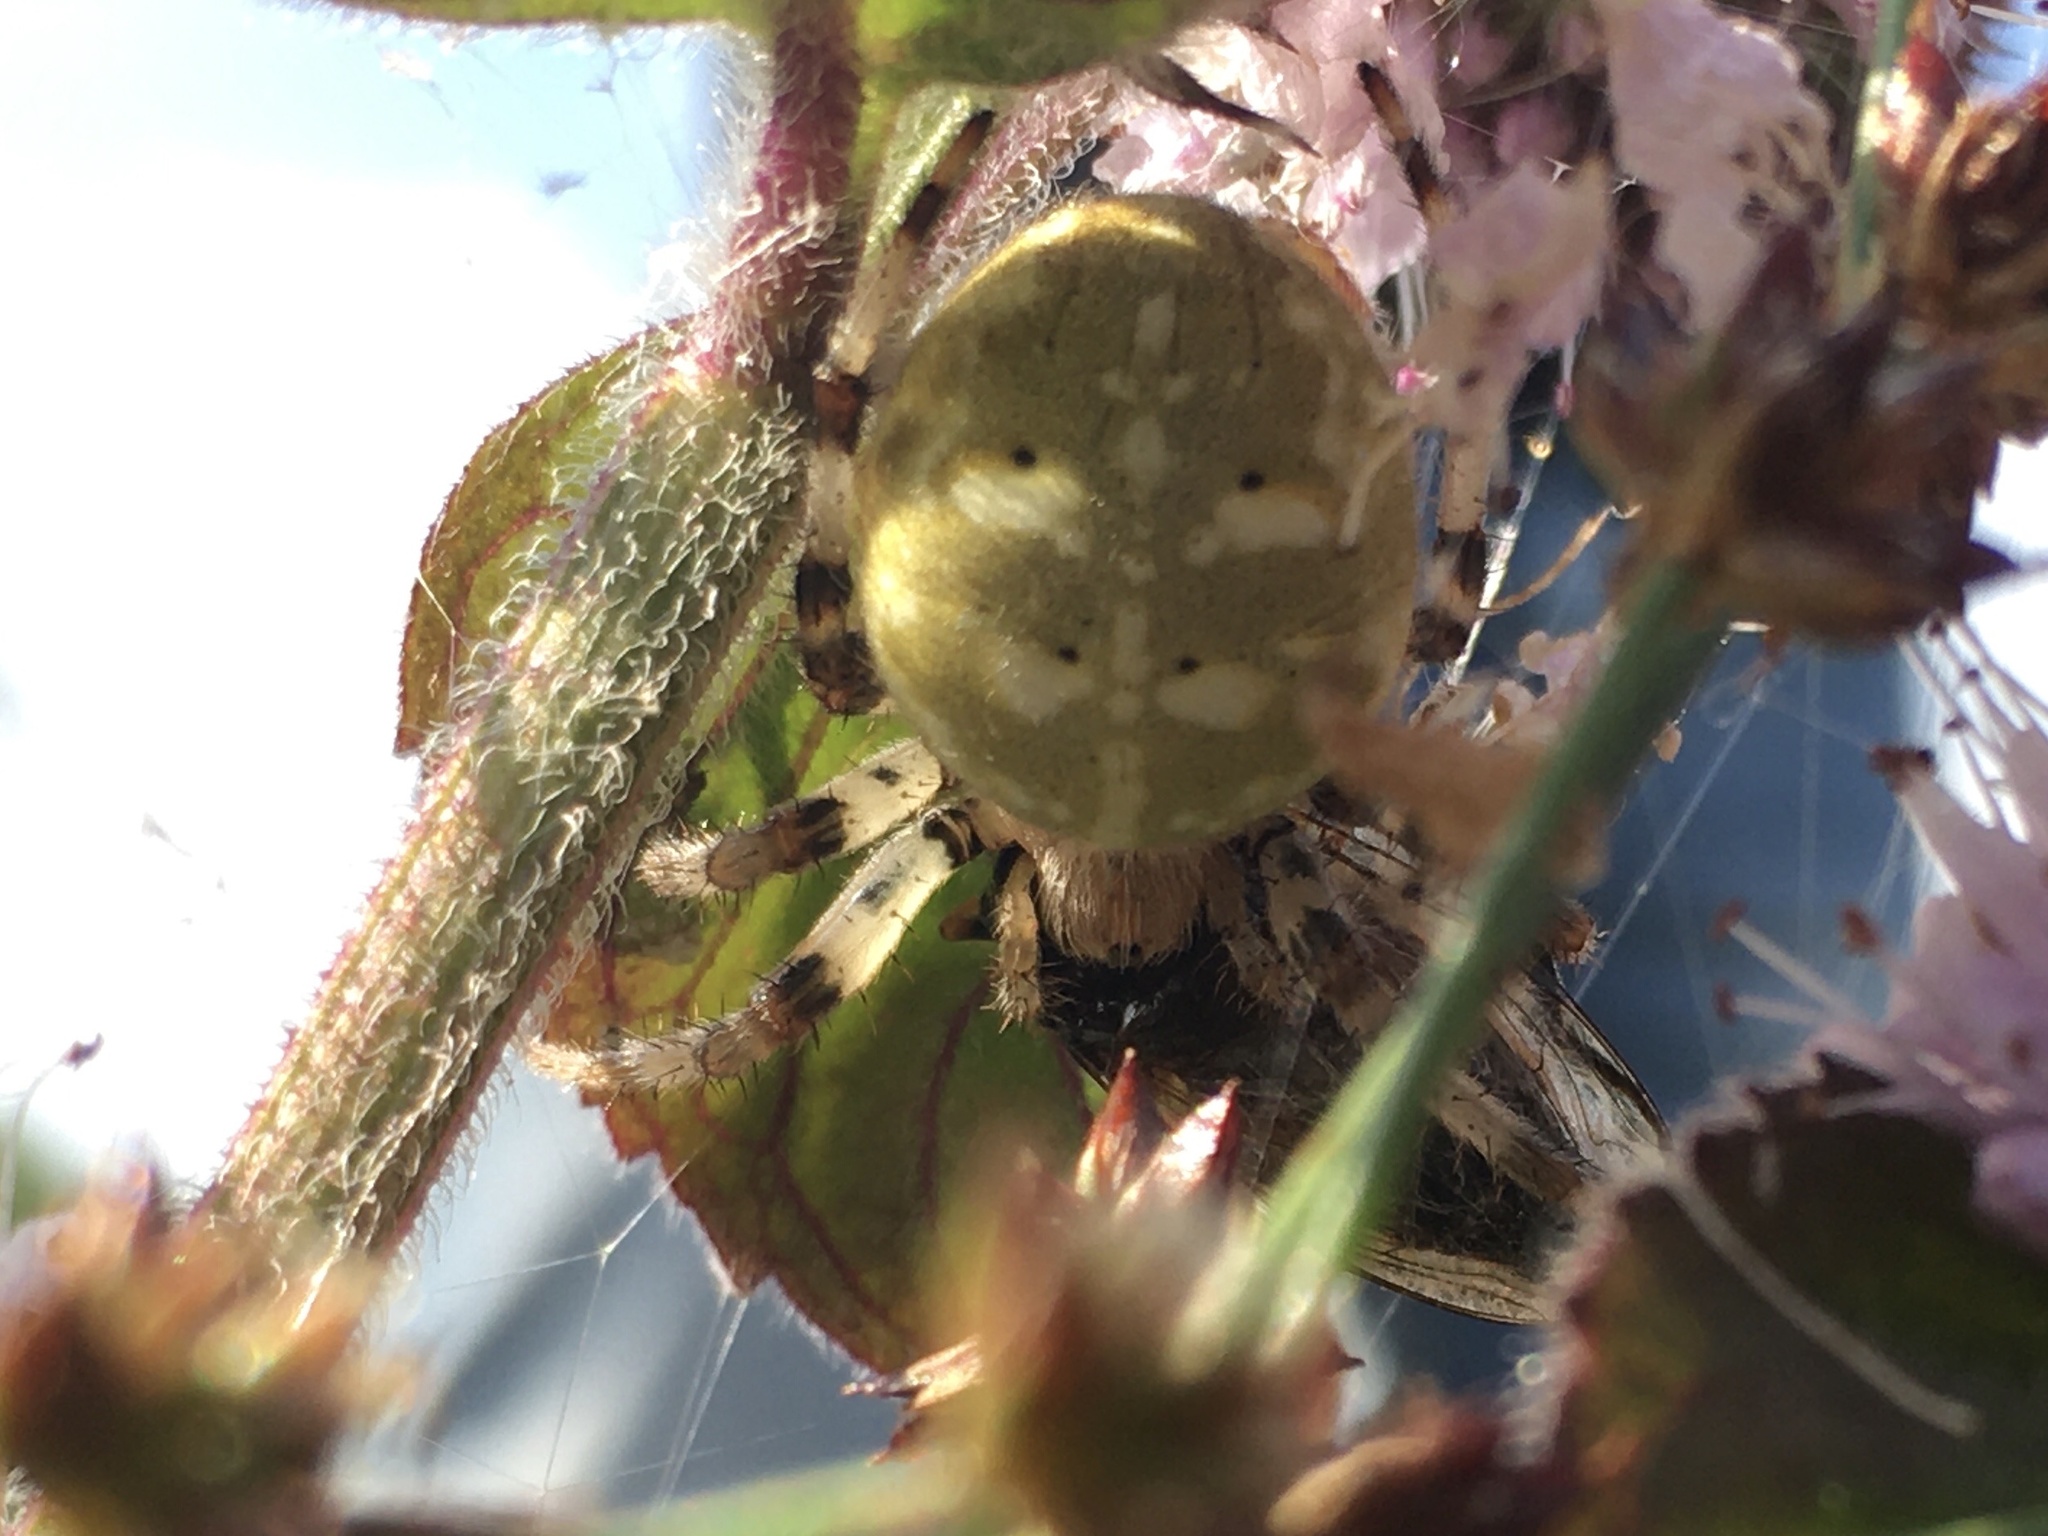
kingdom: Animalia
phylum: Arthropoda
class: Arachnida
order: Araneae
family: Araneidae
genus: Araneus
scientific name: Araneus quadratus
